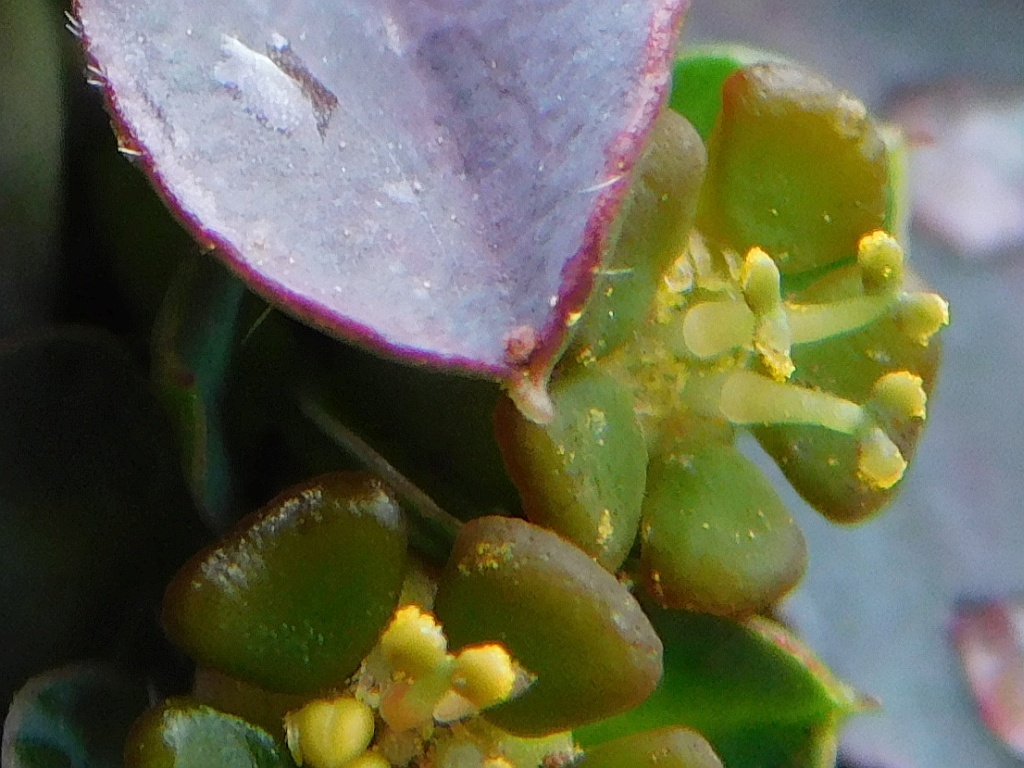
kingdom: Plantae
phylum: Tracheophyta
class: Magnoliopsida
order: Malpighiales
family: Euphorbiaceae
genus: Euphorbia
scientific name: Euphorbia tuberosa
